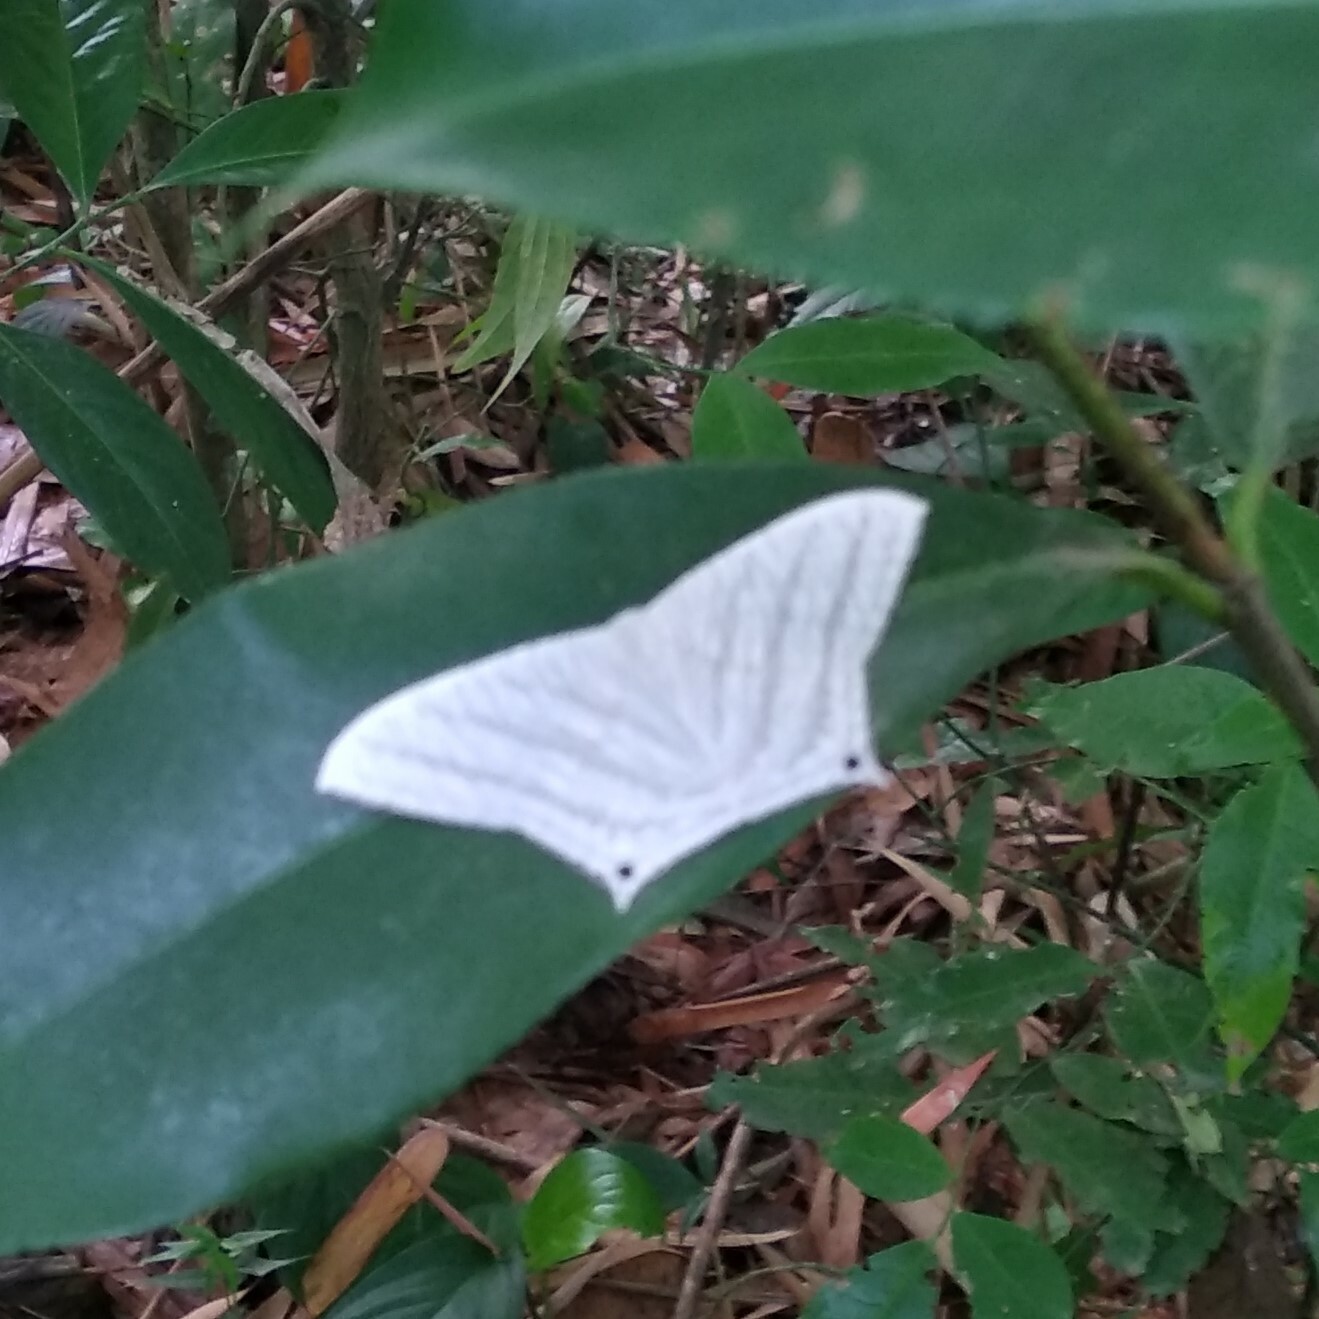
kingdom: Animalia
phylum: Arthropoda
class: Insecta
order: Lepidoptera
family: Uraniidae
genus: Micronia
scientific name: Micronia aculeata
